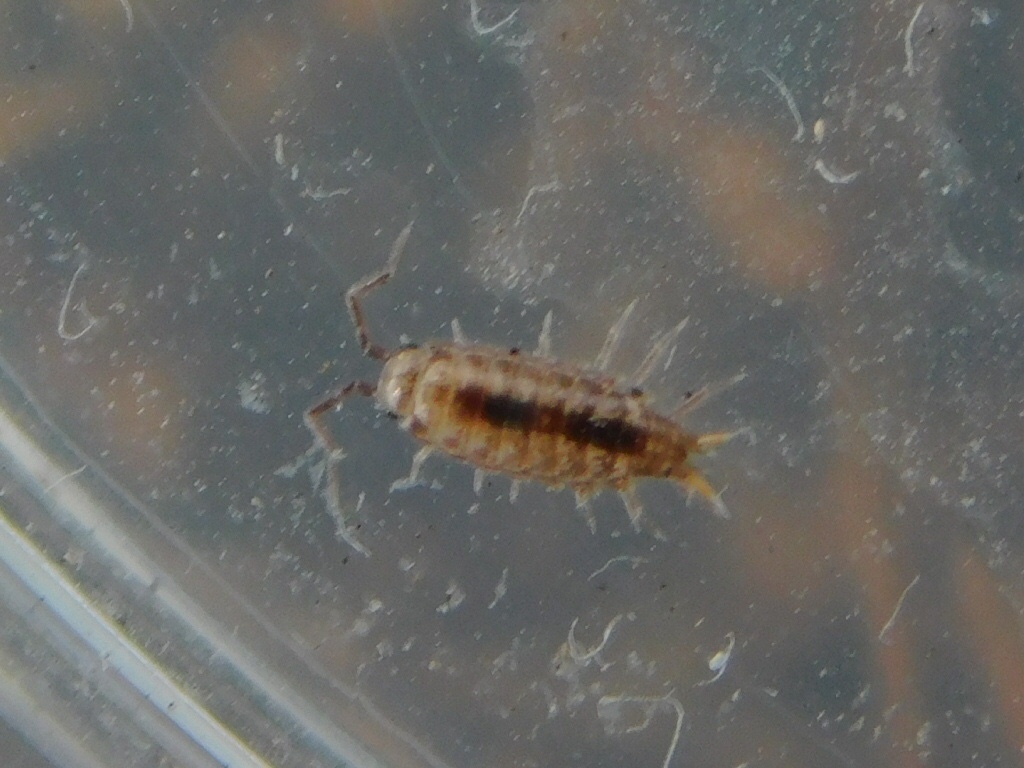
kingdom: Animalia
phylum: Arthropoda
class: Malacostraca
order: Isopoda
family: Philosciidae
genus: Atlantoscia
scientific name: Atlantoscia floridana
